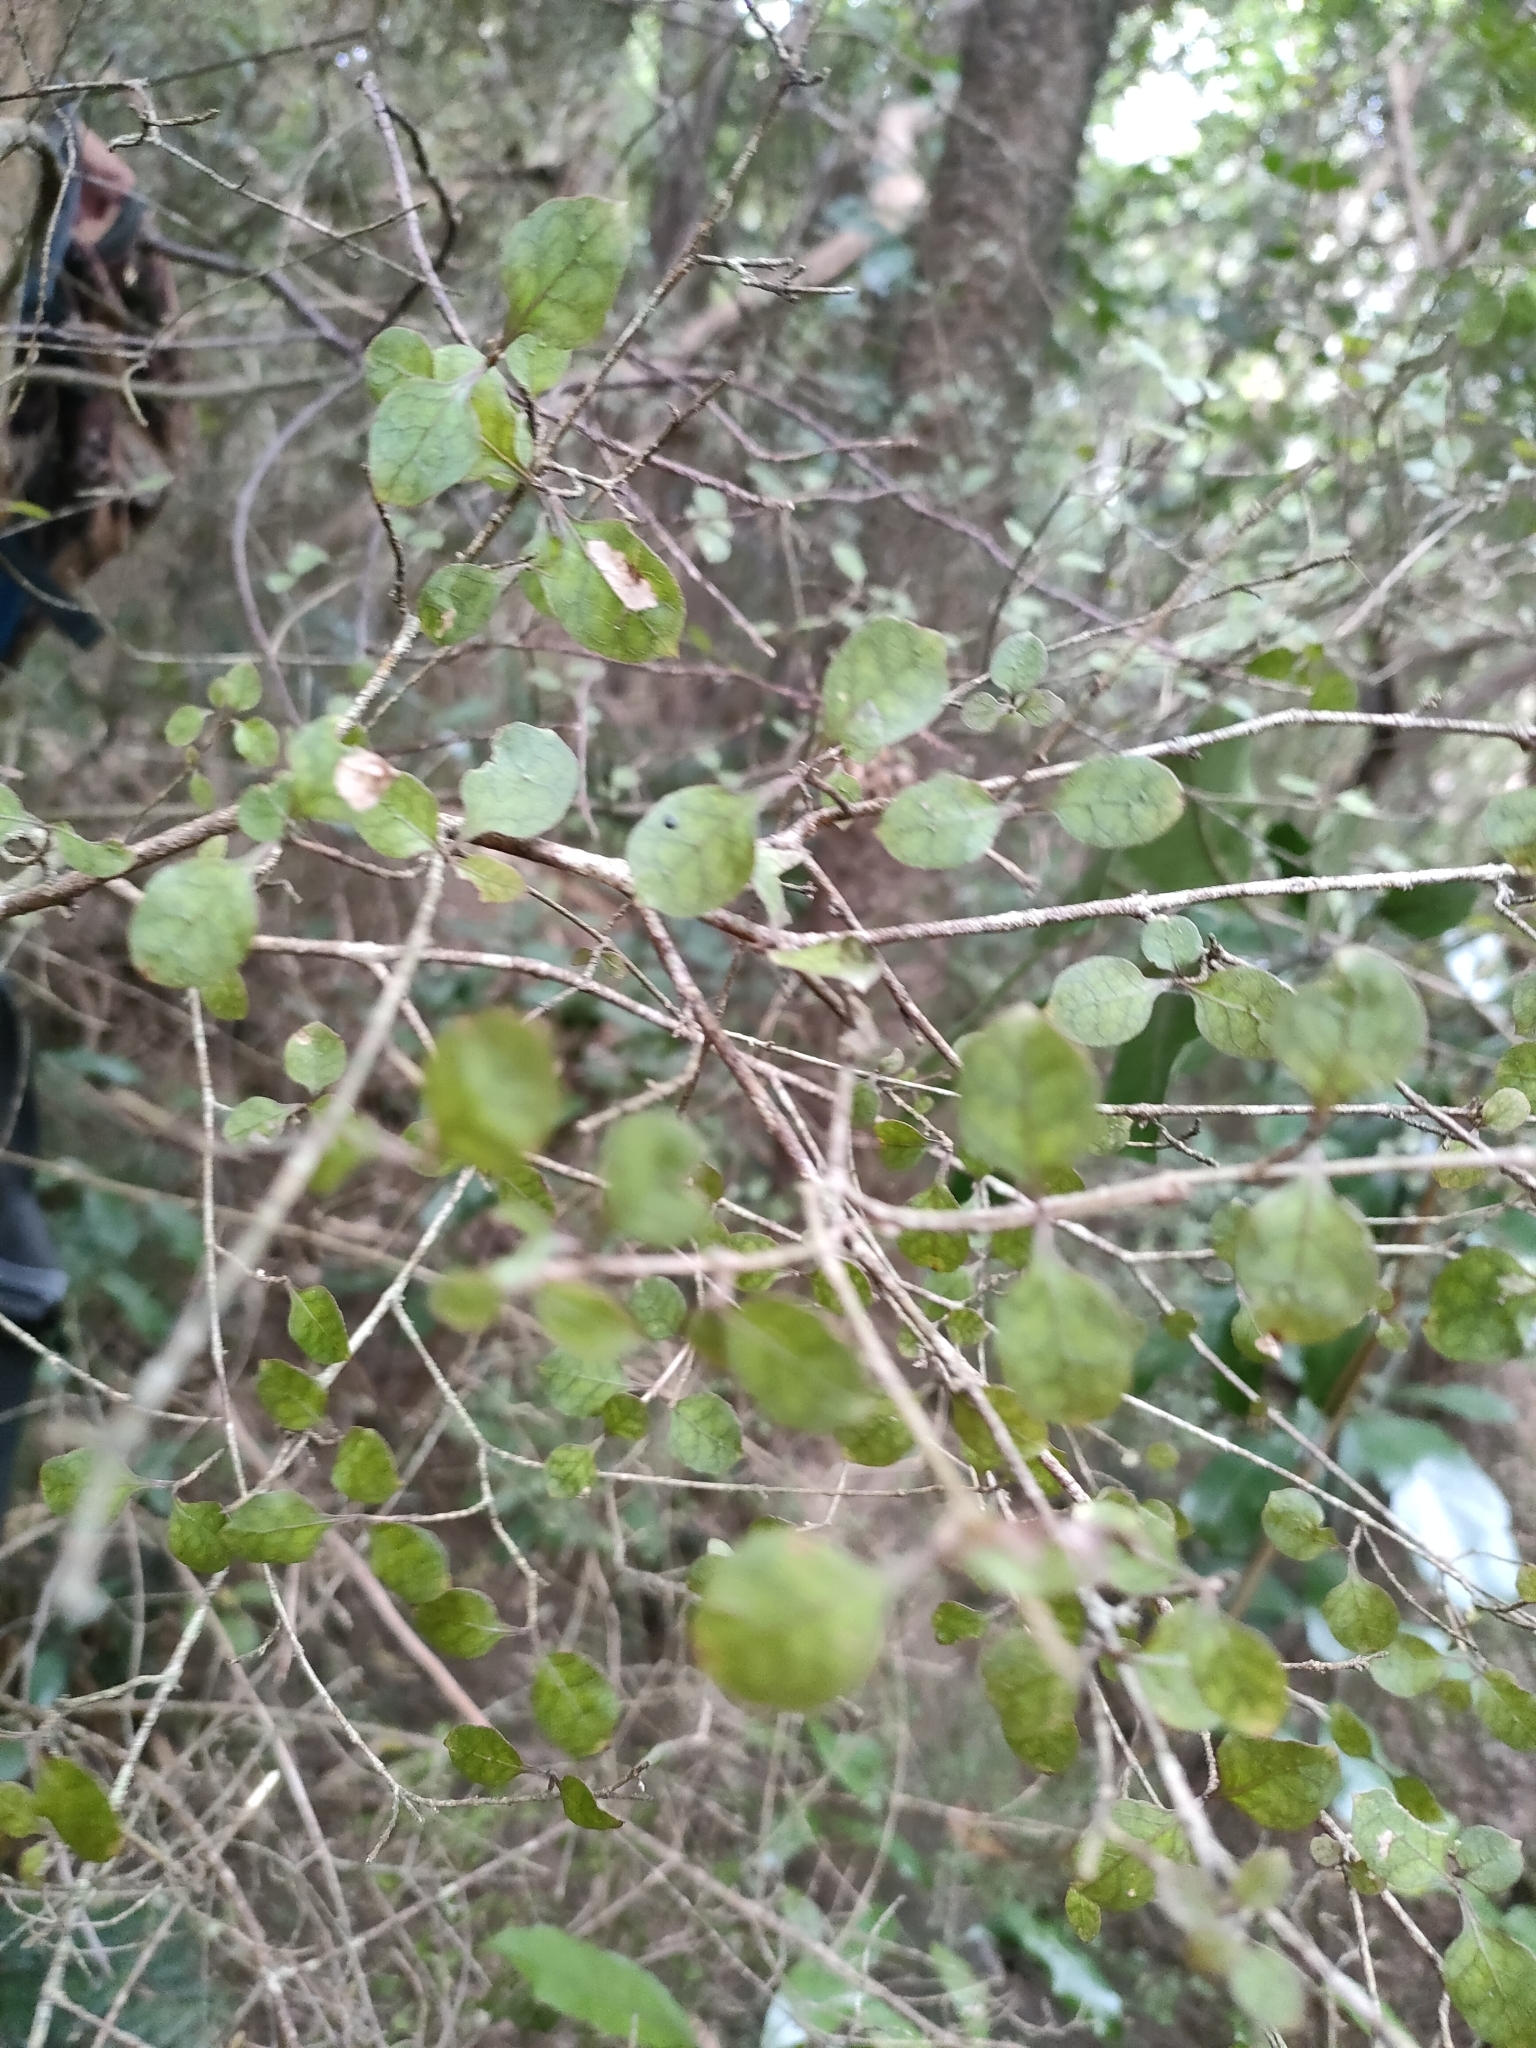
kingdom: Plantae
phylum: Tracheophyta
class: Magnoliopsida
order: Gentianales
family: Rubiaceae
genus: Coprosma
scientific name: Coprosma areolata
